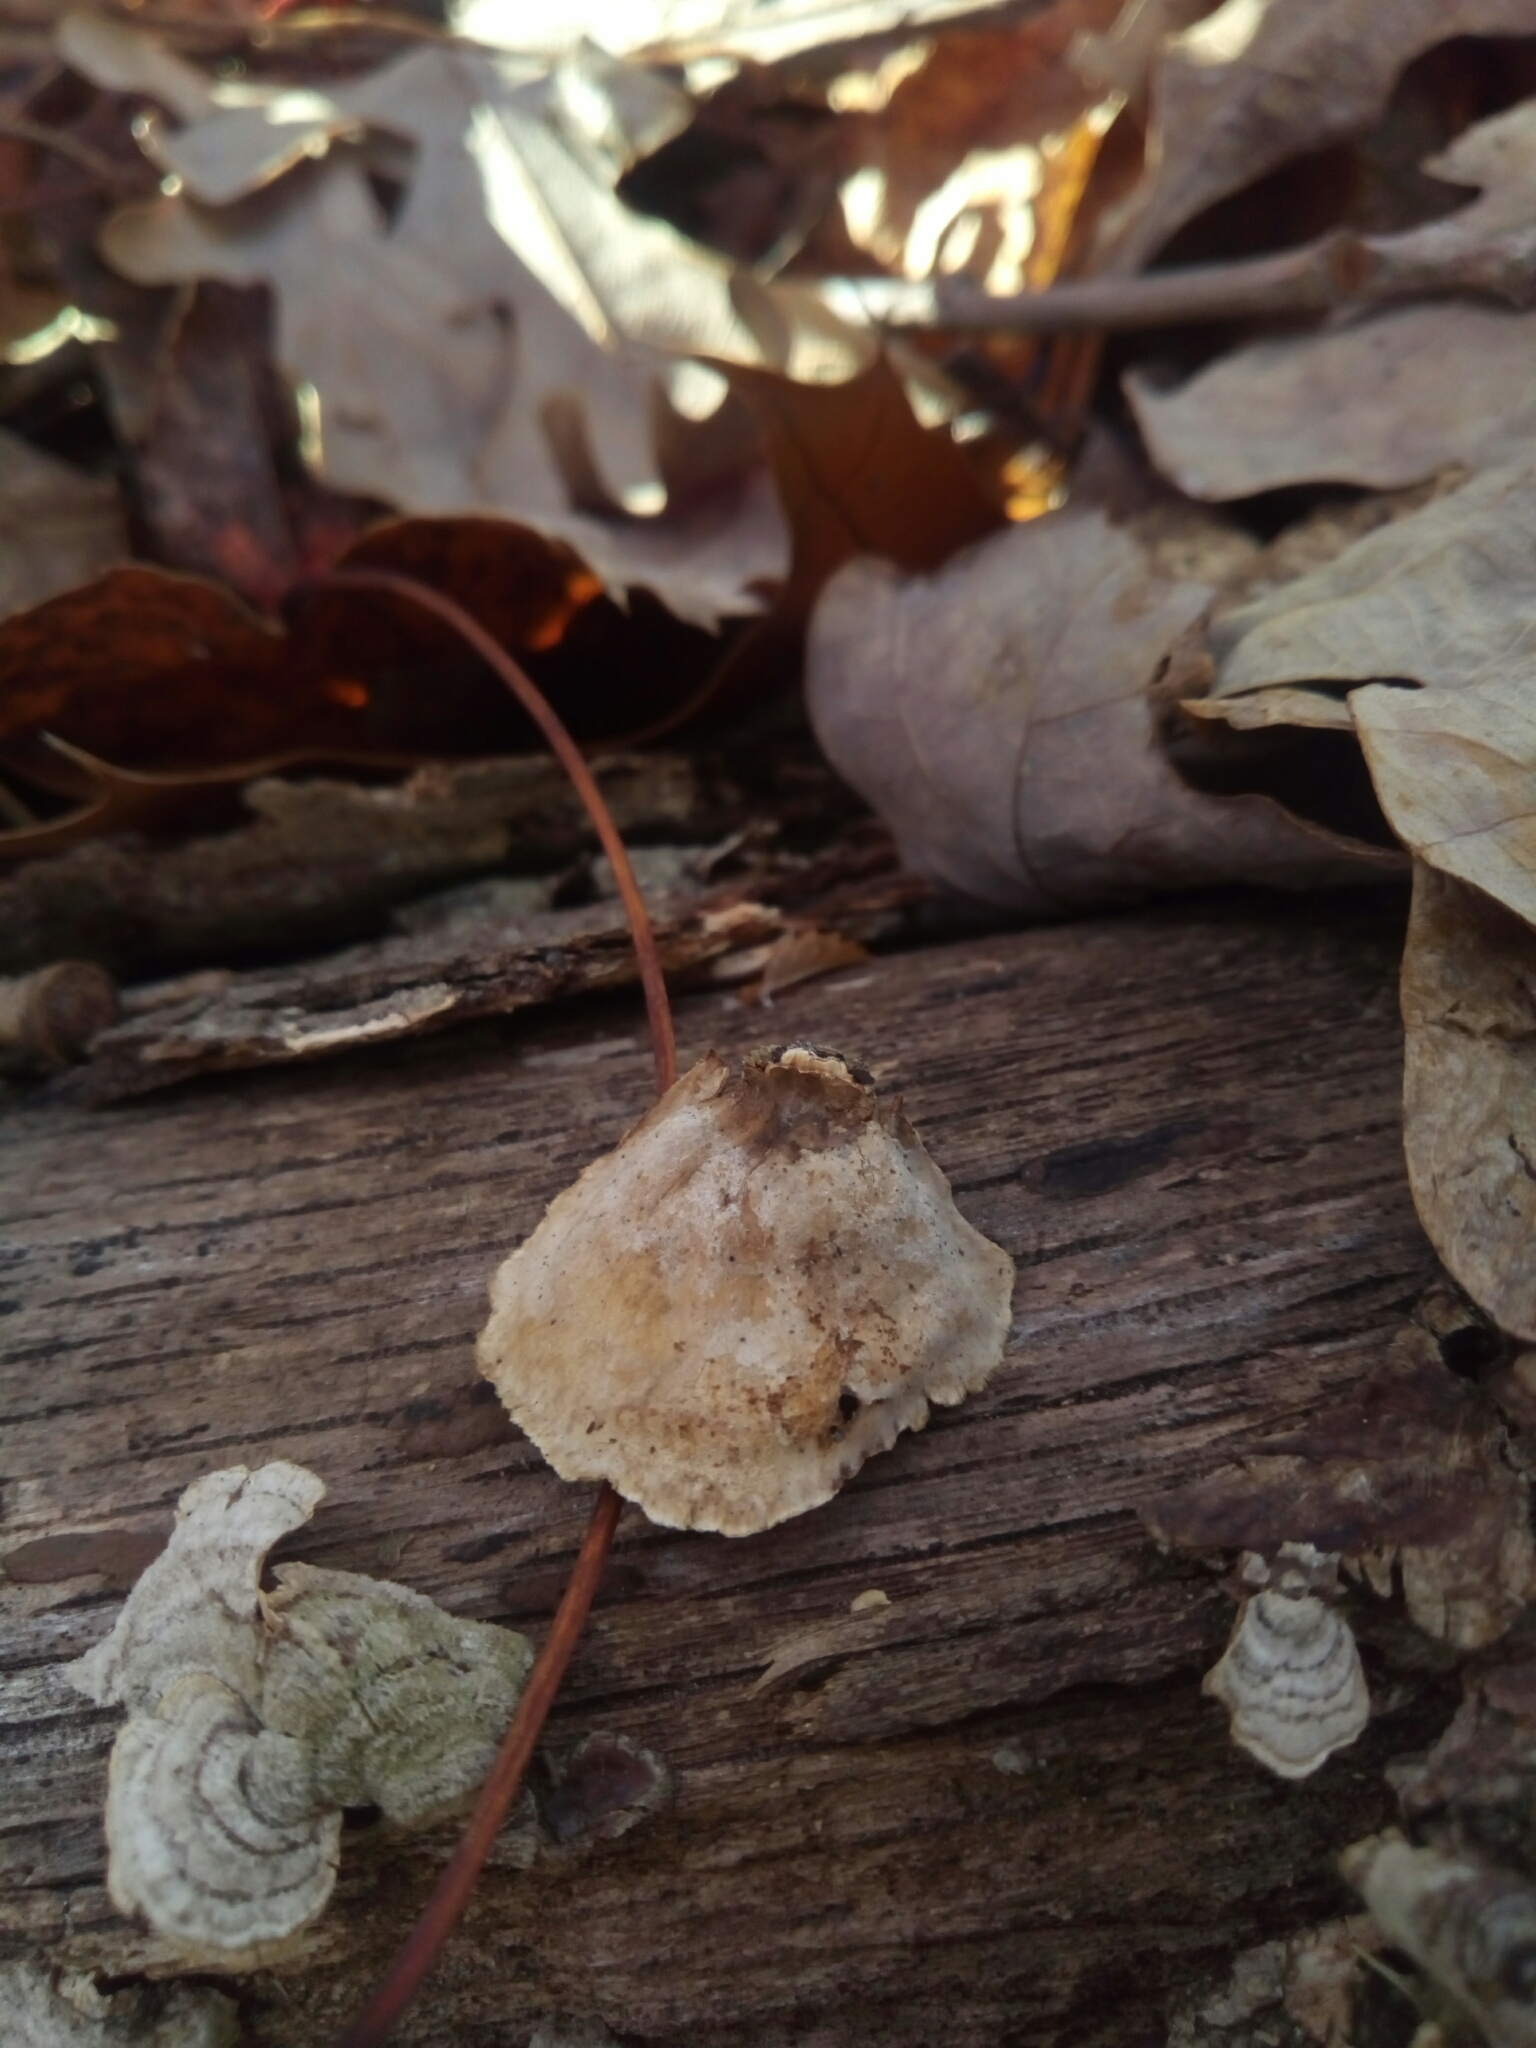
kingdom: Fungi
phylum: Basidiomycota
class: Agaricomycetes
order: Russulales
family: Stereaceae
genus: Stereum
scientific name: Stereum ostrea
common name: False turkeytail
